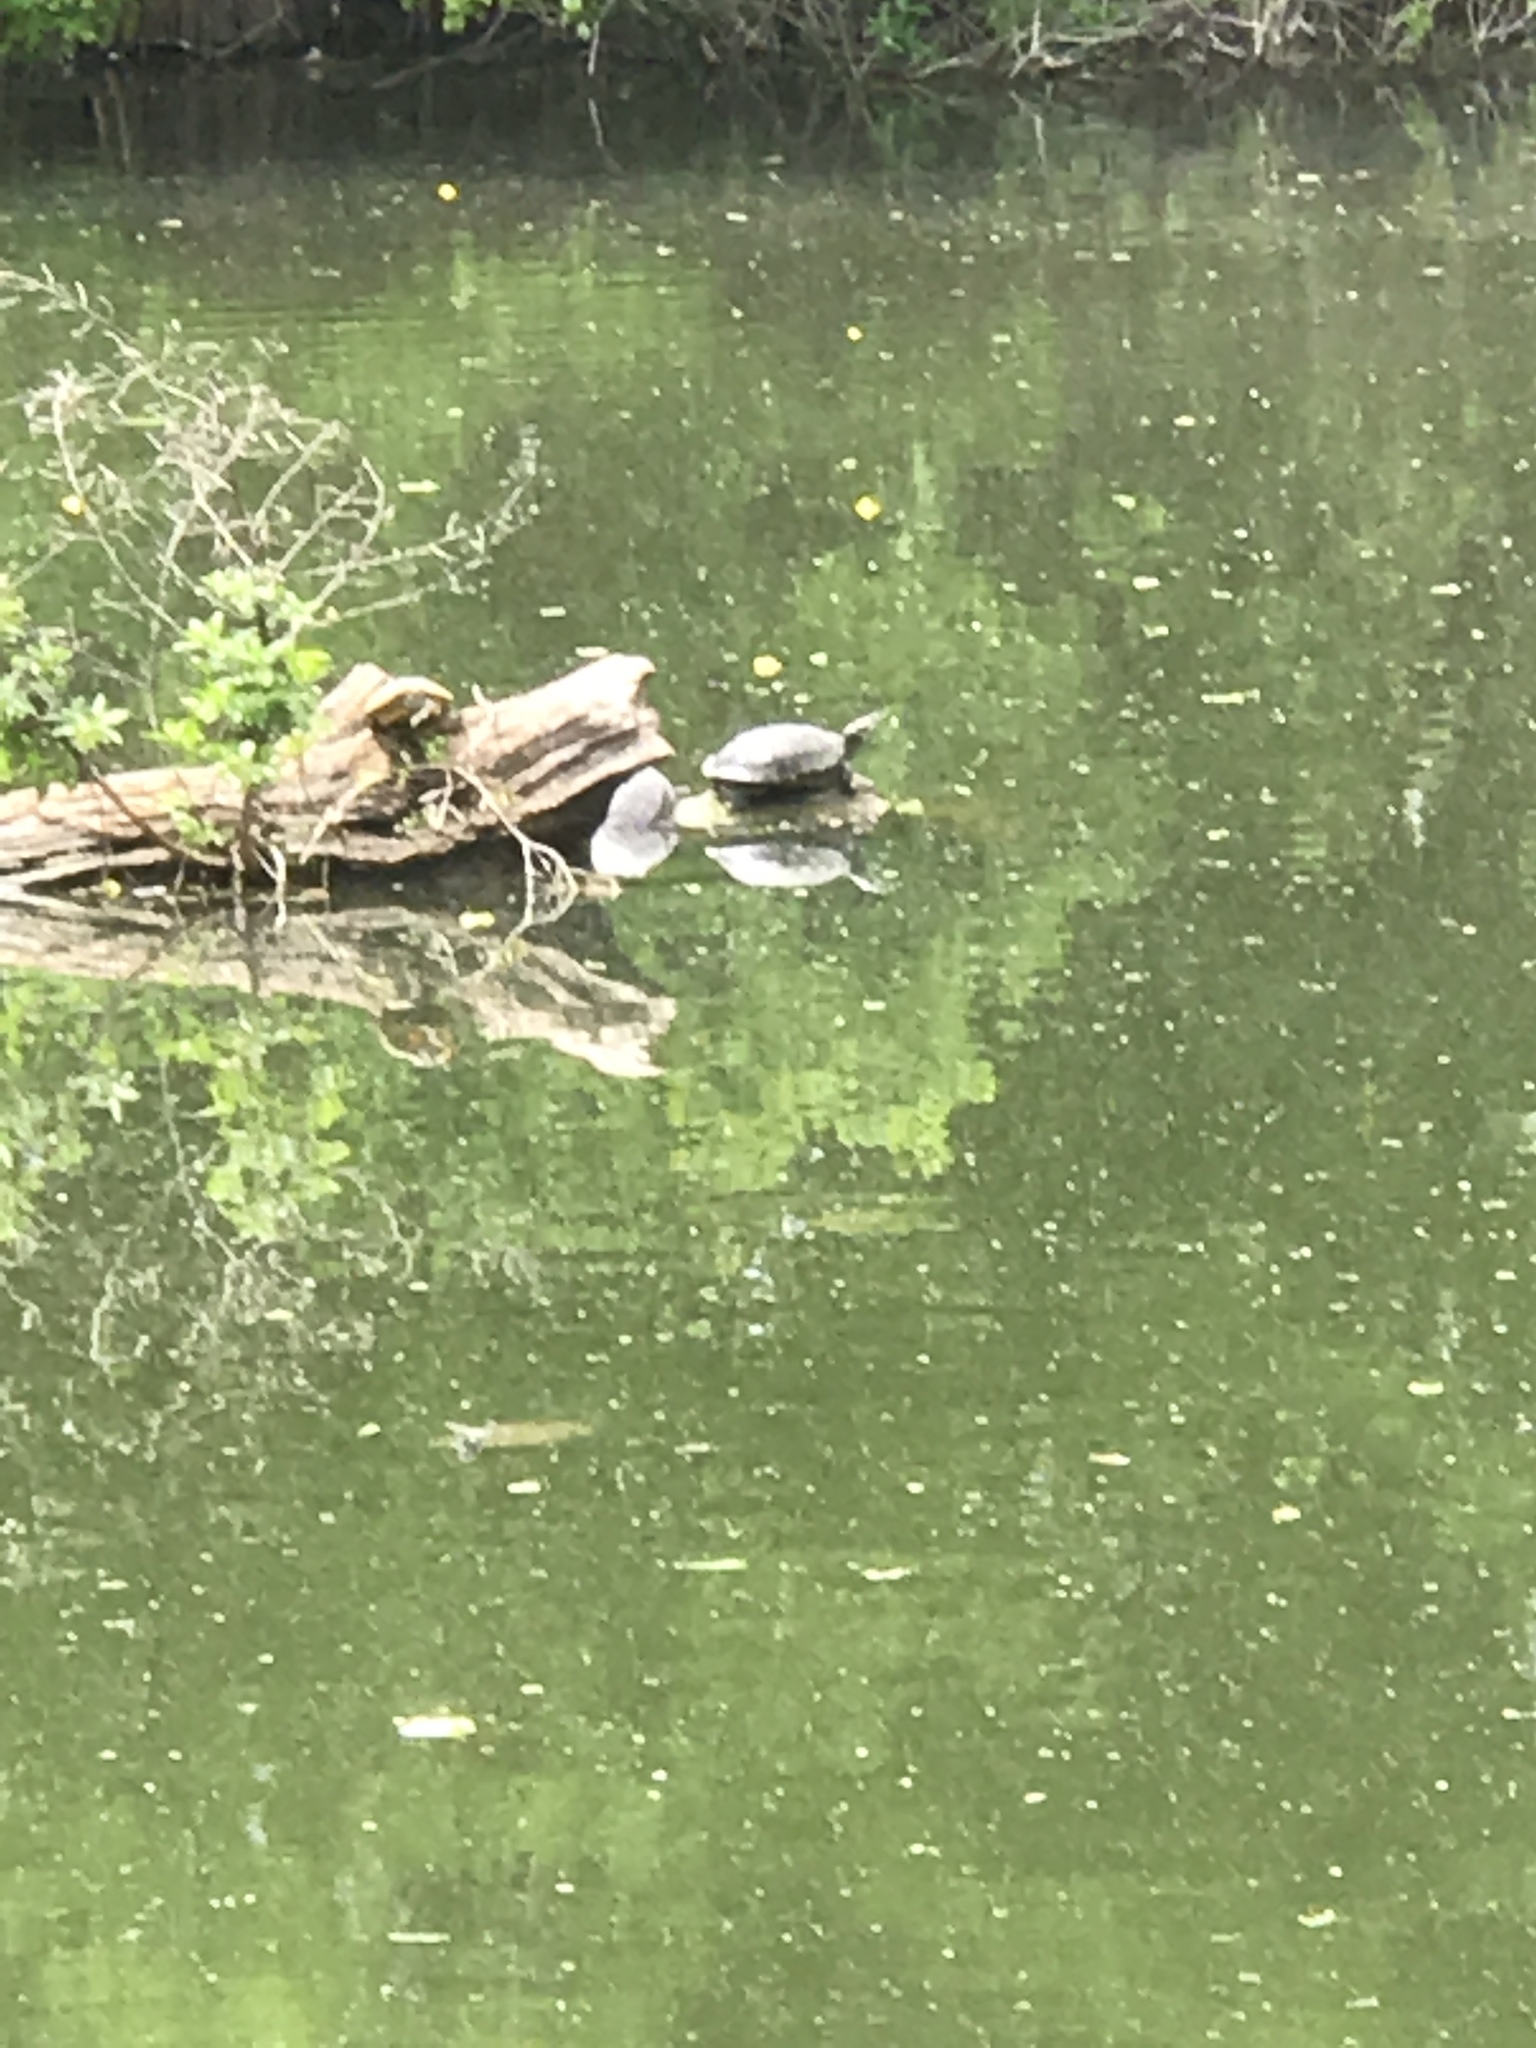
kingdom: Animalia
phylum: Chordata
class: Testudines
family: Emydidae
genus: Trachemys
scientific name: Trachemys scripta
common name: Slider
